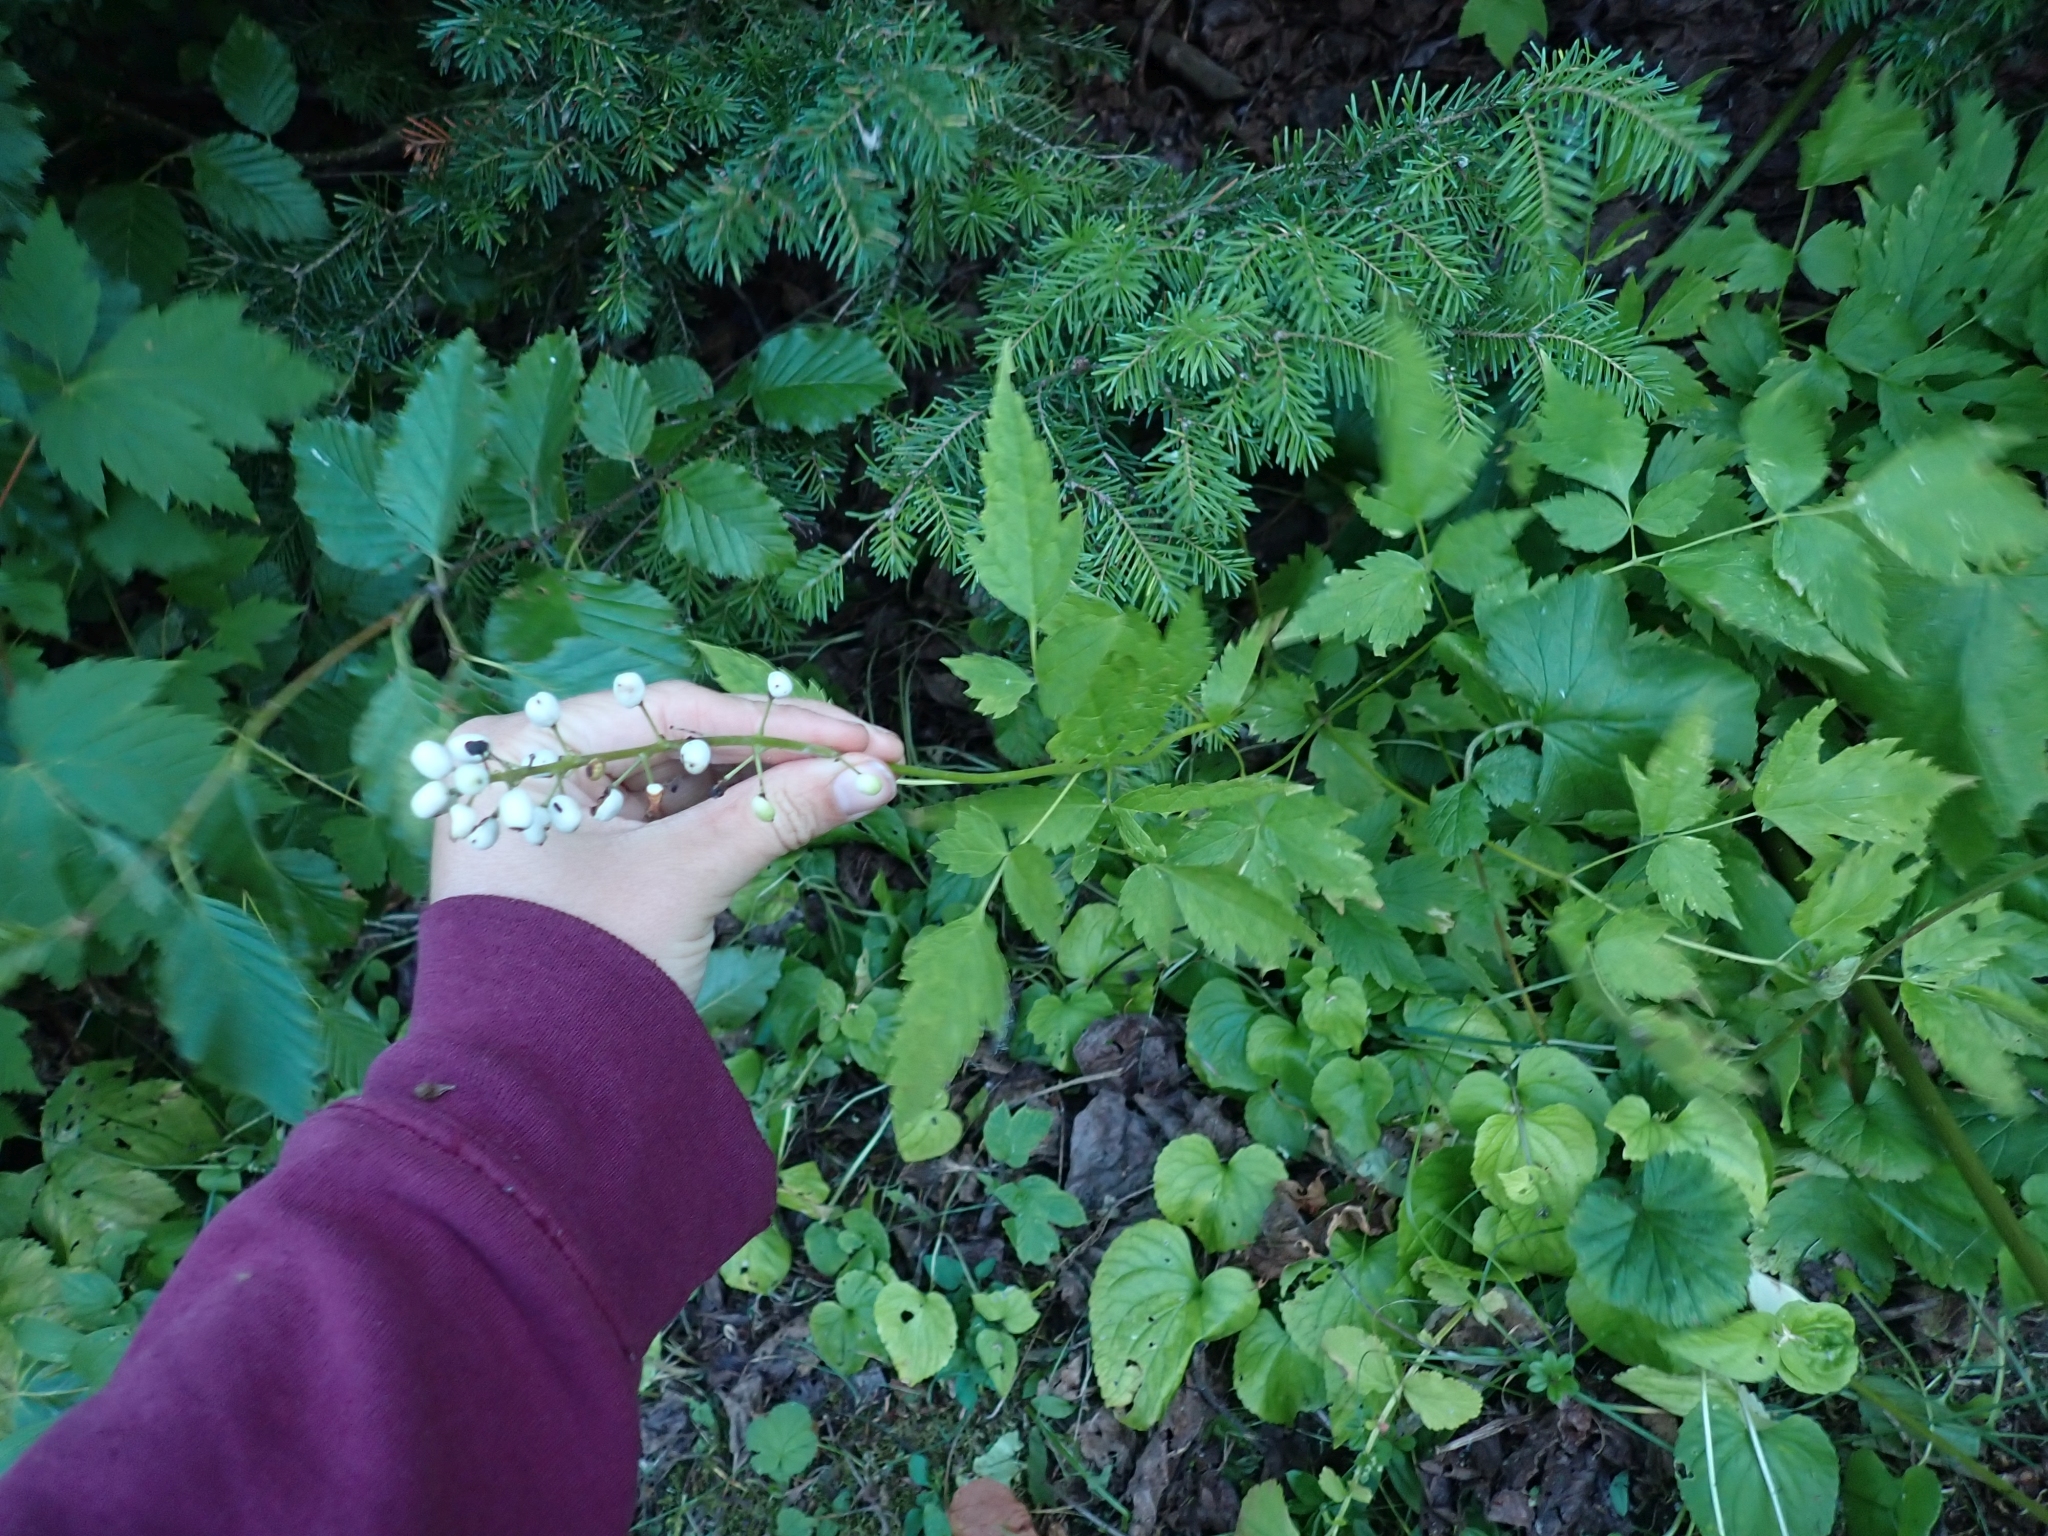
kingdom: Plantae
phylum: Tracheophyta
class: Magnoliopsida
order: Ranunculales
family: Ranunculaceae
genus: Actaea
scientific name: Actaea rubra
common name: Red baneberry
